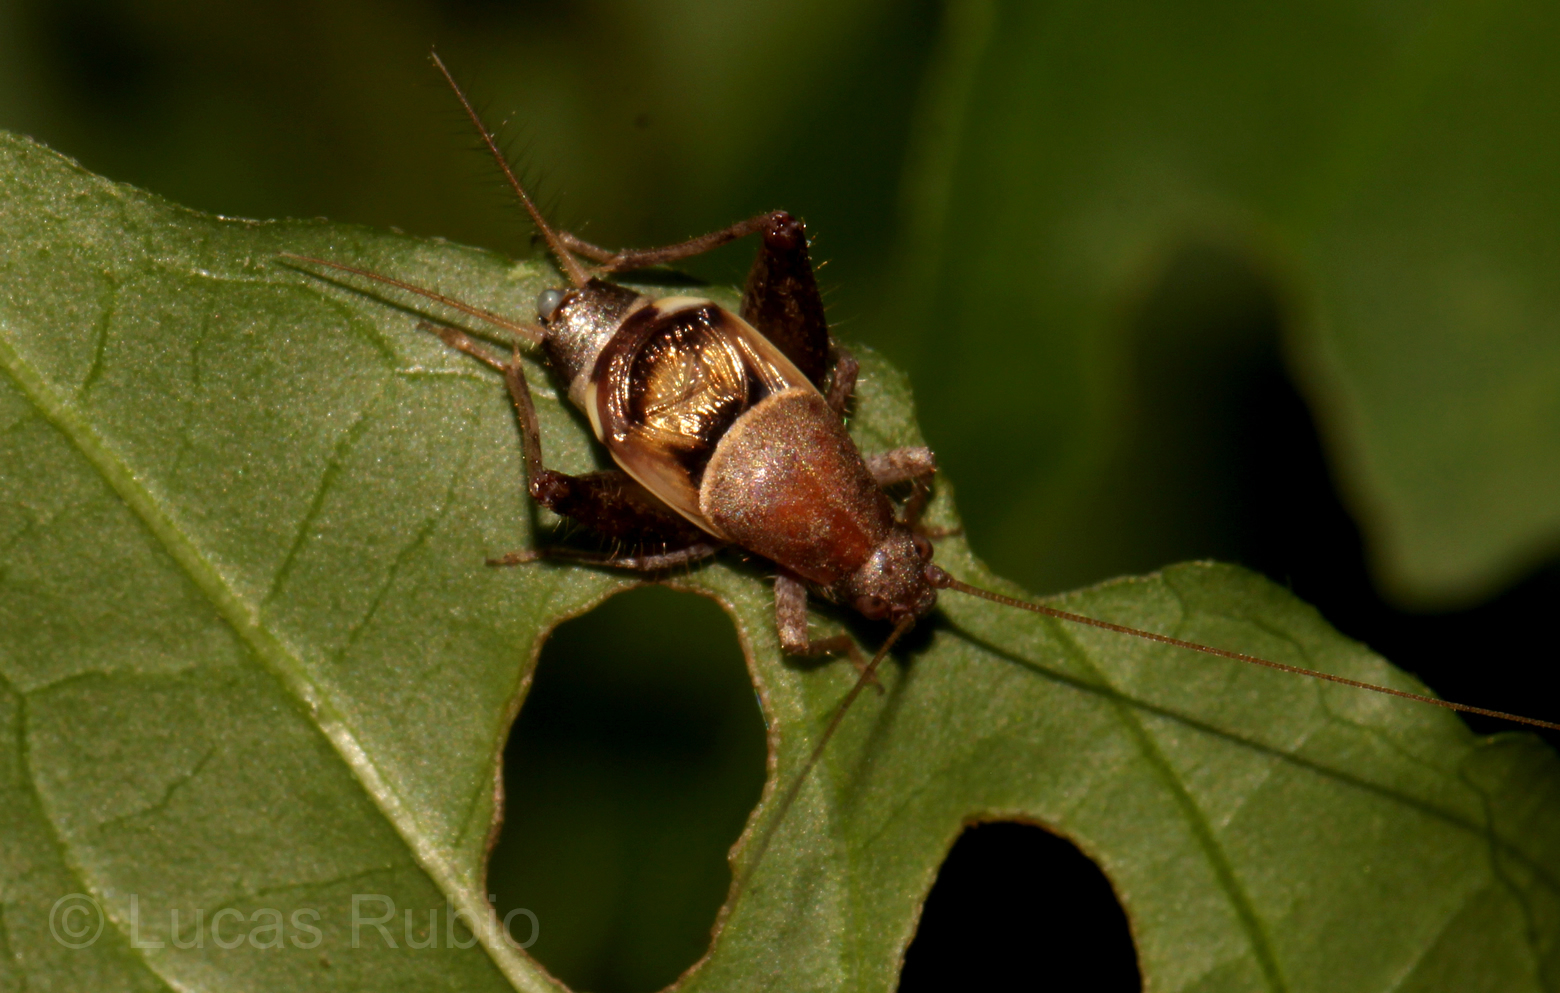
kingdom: Animalia
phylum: Arthropoda
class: Insecta
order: Orthoptera
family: Mogoplistidae
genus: Ornebius
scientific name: Ornebius alatus
